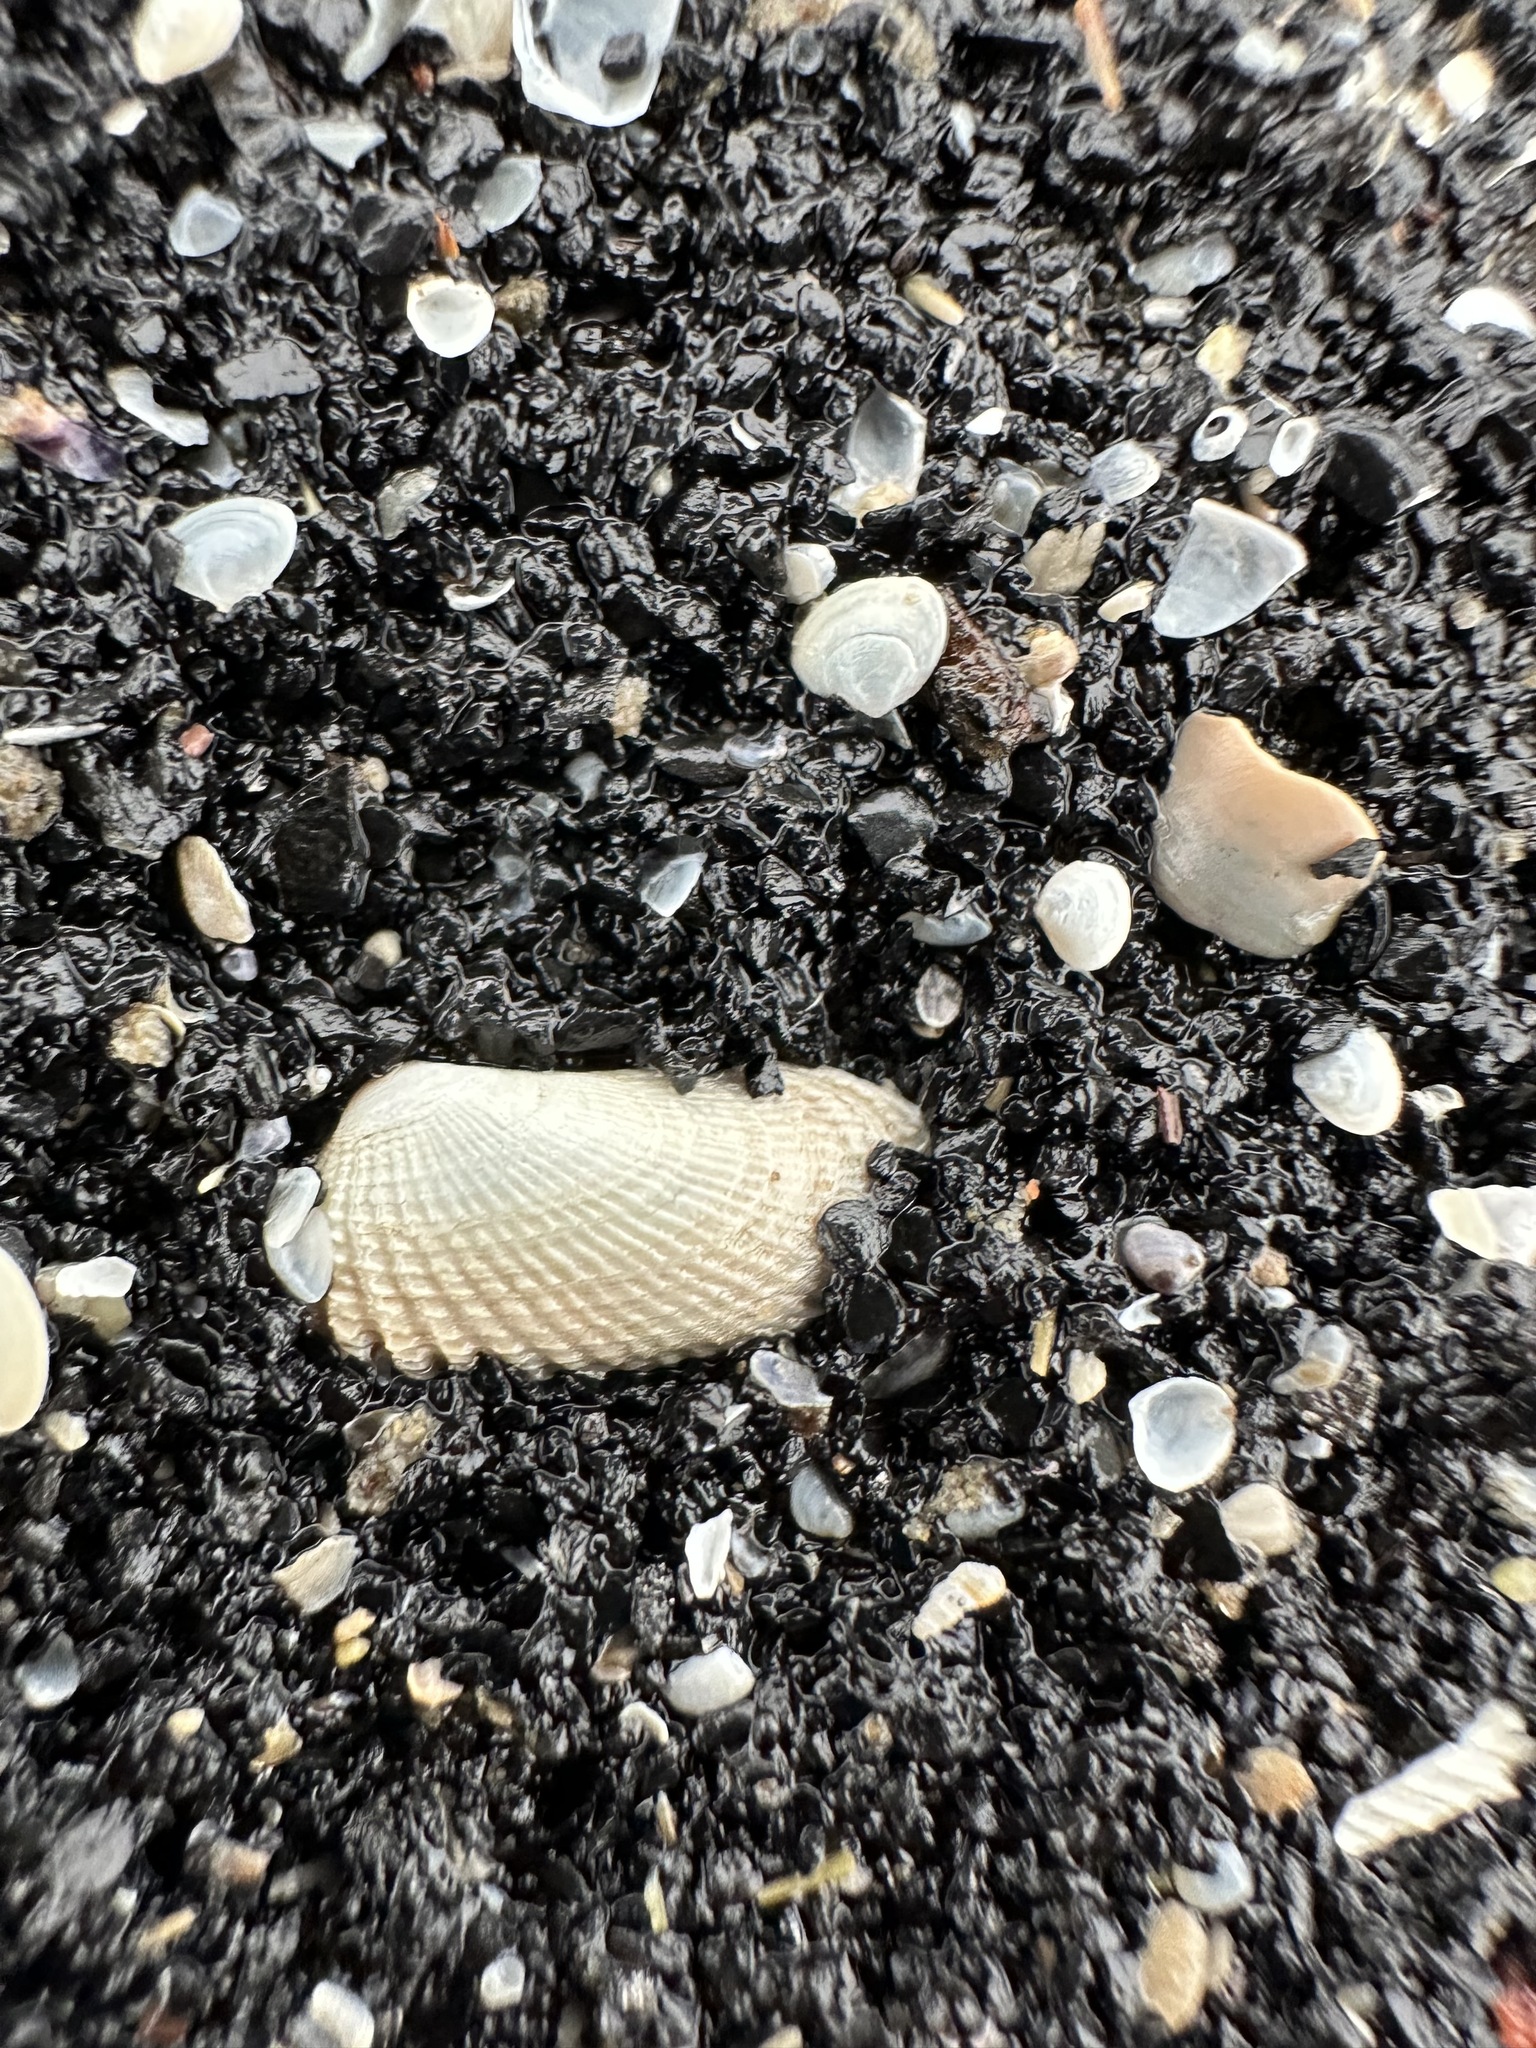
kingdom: Animalia
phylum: Mollusca
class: Bivalvia
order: Venerida
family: Veneridae
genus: Petricolaria
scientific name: Petricolaria pholadiformis
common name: American piddock
